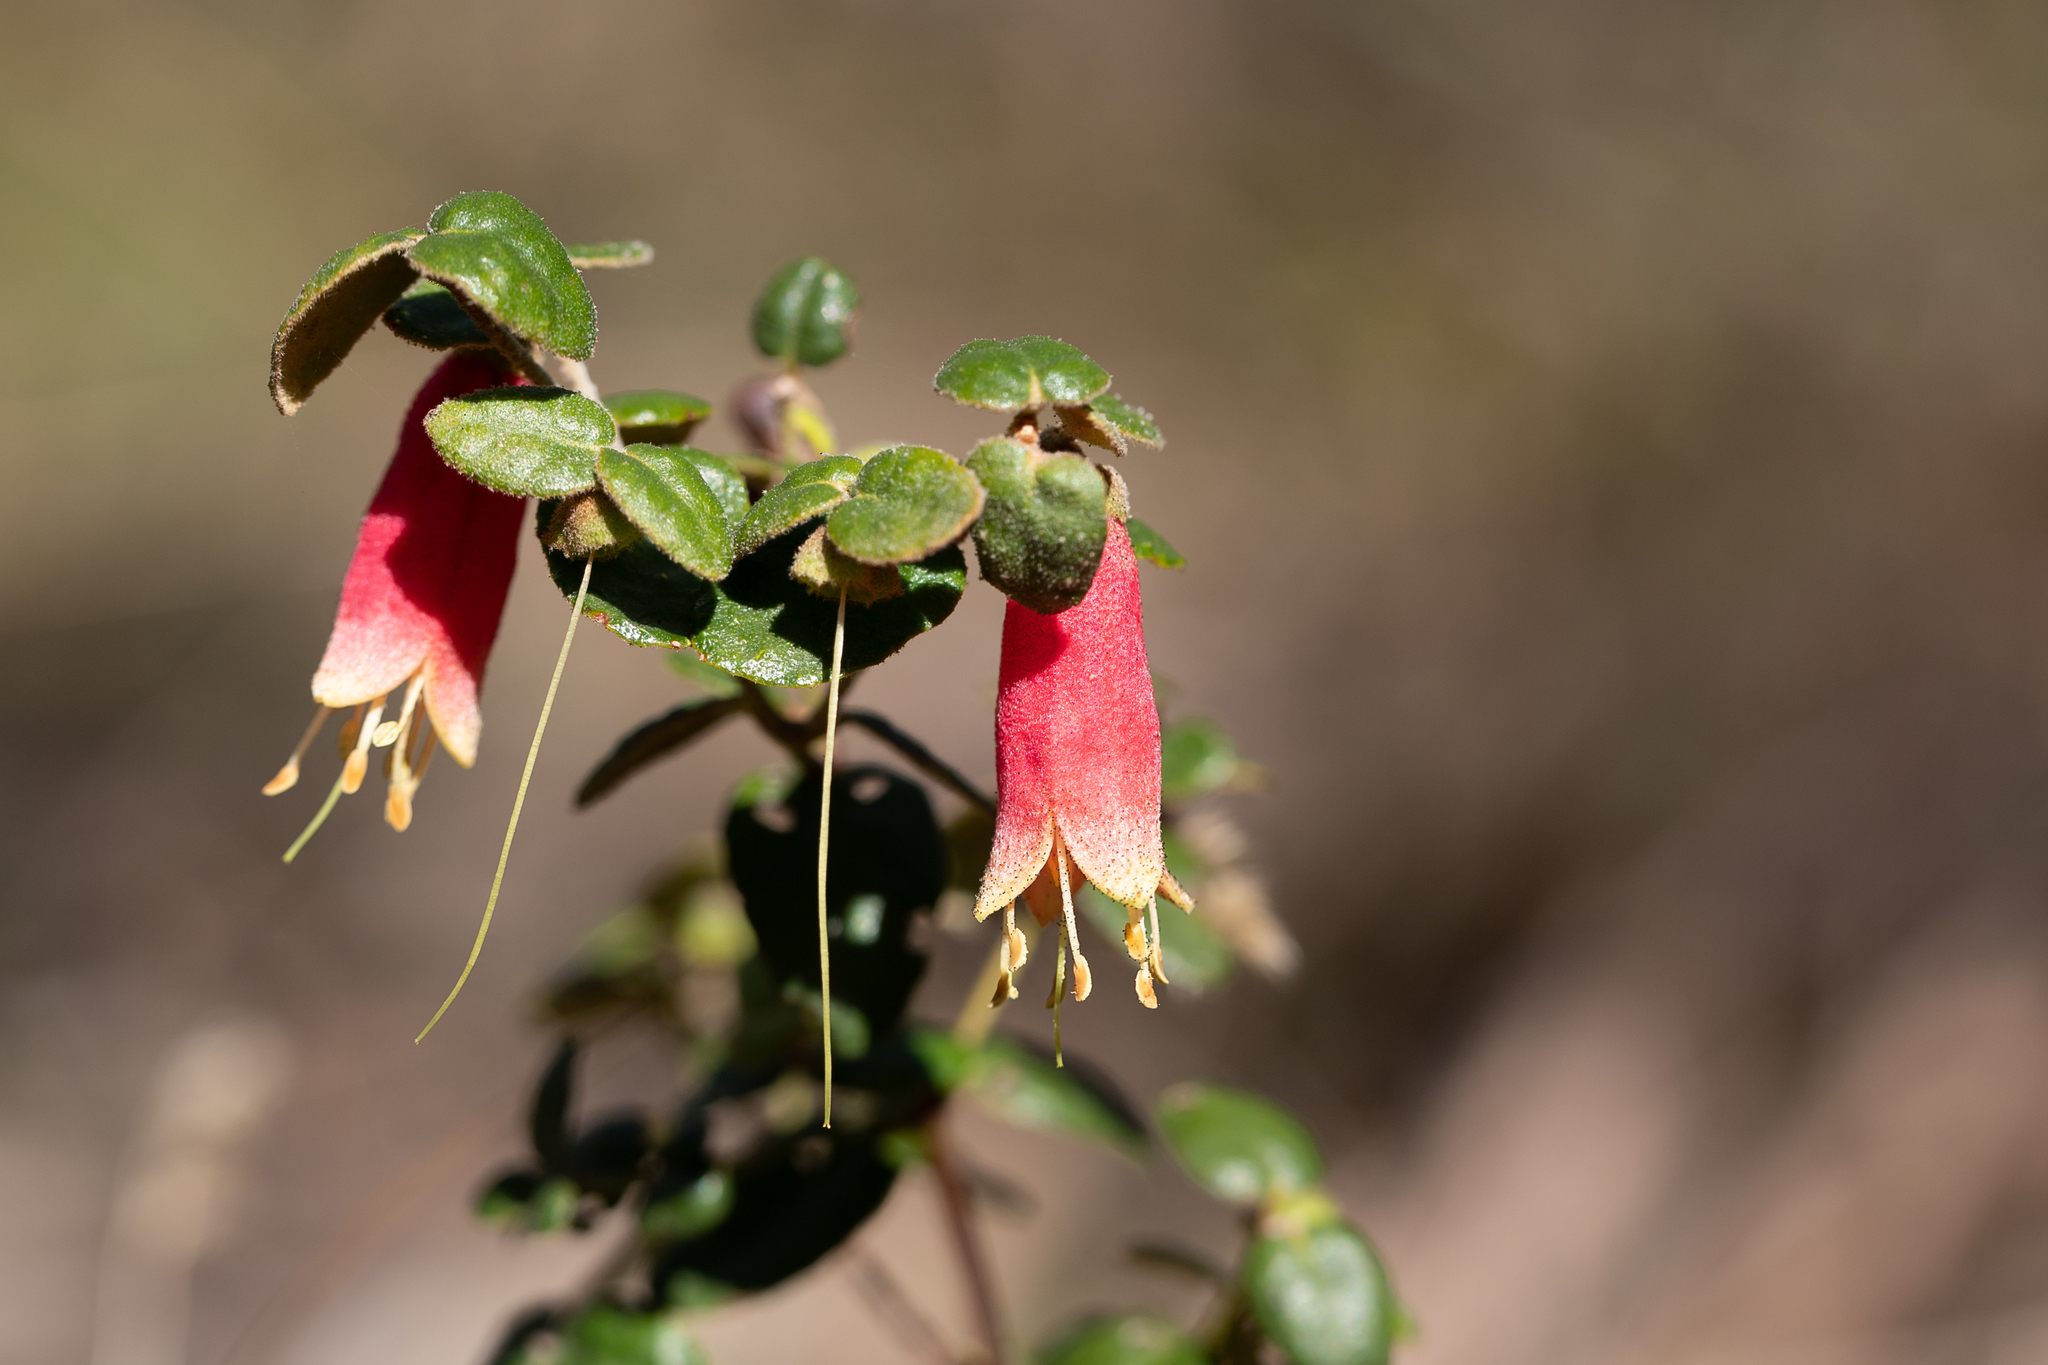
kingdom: Plantae
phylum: Tracheophyta
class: Magnoliopsida
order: Sapindales
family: Rutaceae
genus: Correa
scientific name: Correa reflexa
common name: Common correa
